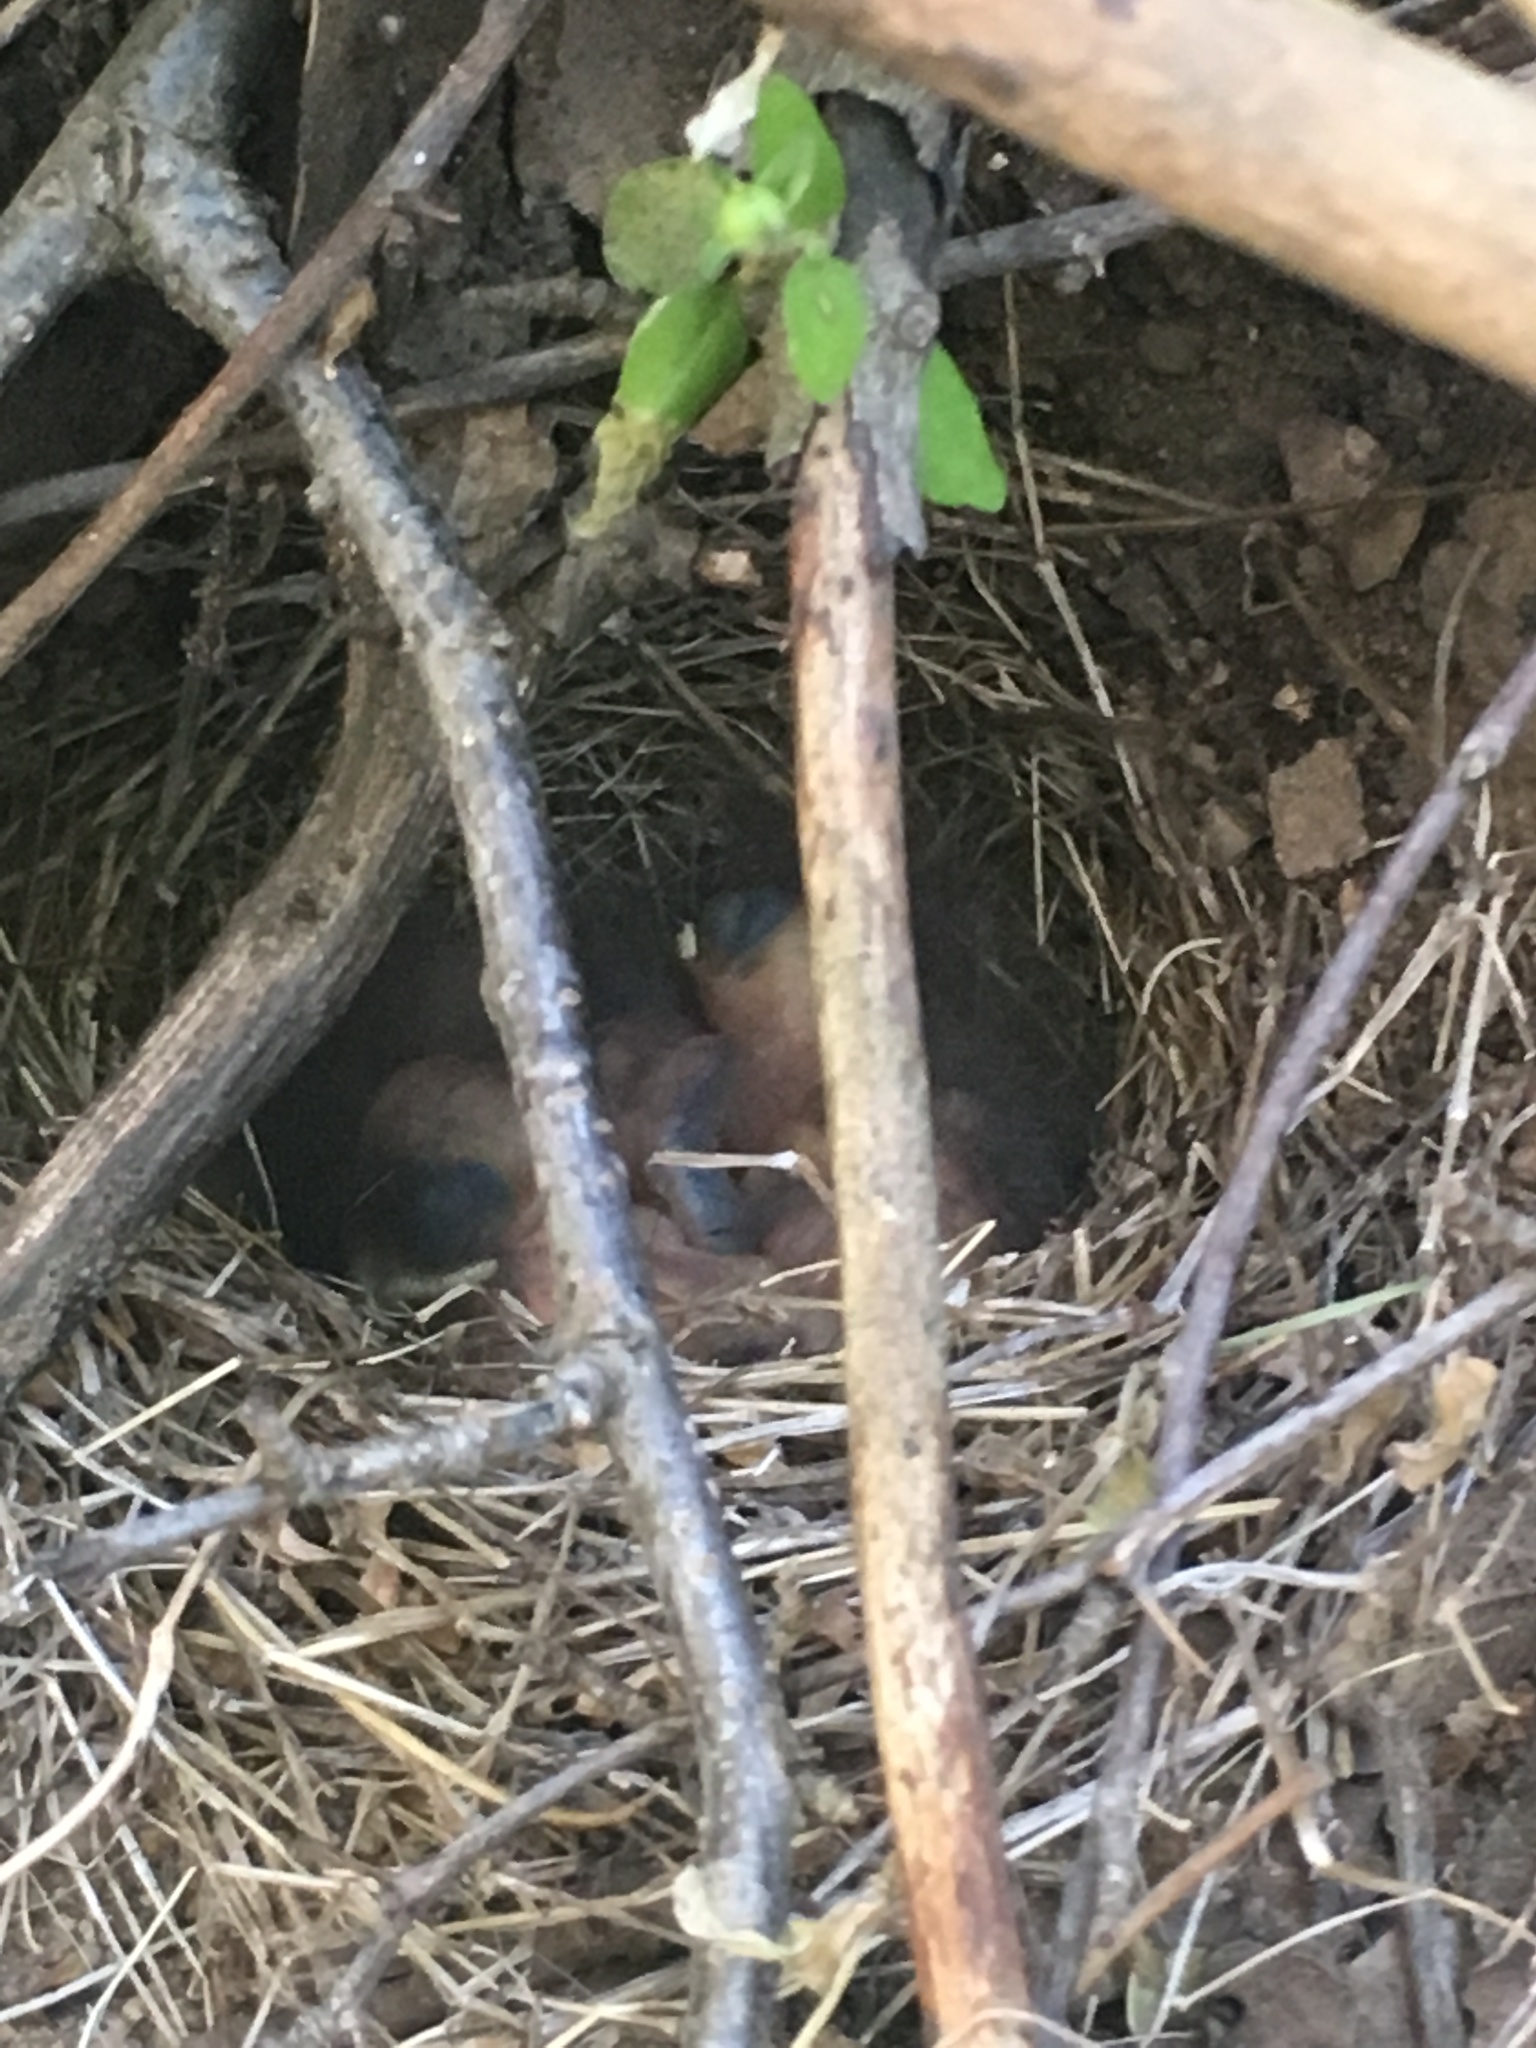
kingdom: Animalia
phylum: Chordata
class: Aves
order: Passeriformes
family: Passerellidae
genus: Junco
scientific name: Junco hyemalis
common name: Dark-eyed junco
